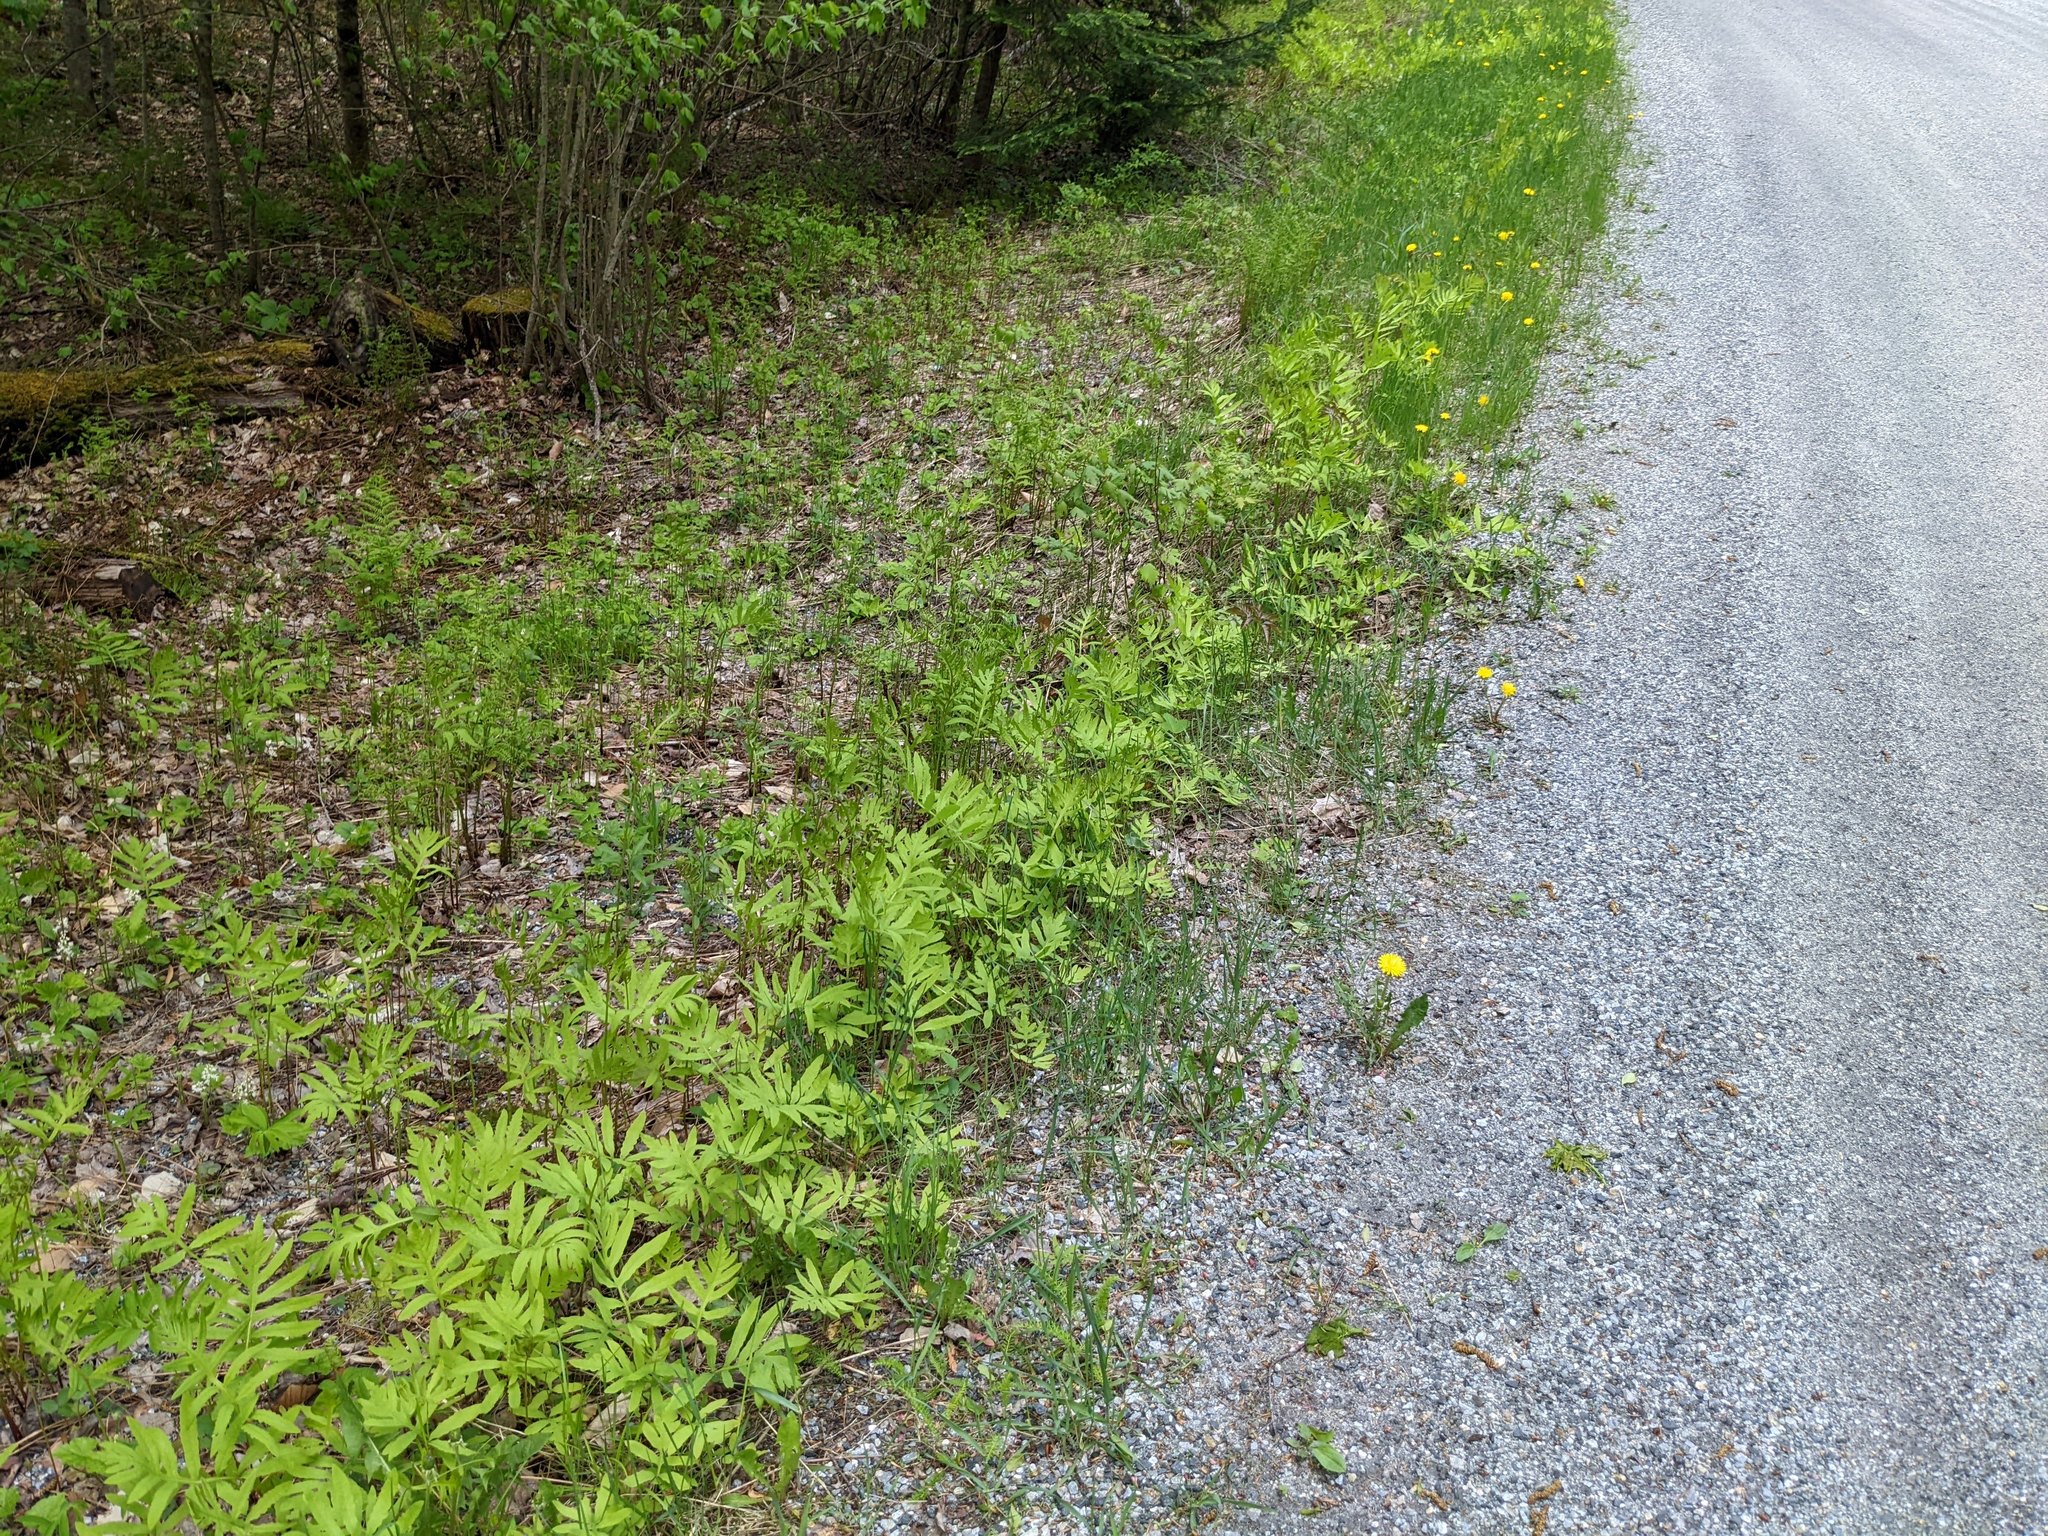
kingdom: Plantae
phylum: Tracheophyta
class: Polypodiopsida
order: Polypodiales
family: Onocleaceae
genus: Onoclea
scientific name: Onoclea sensibilis
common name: Sensitive fern
